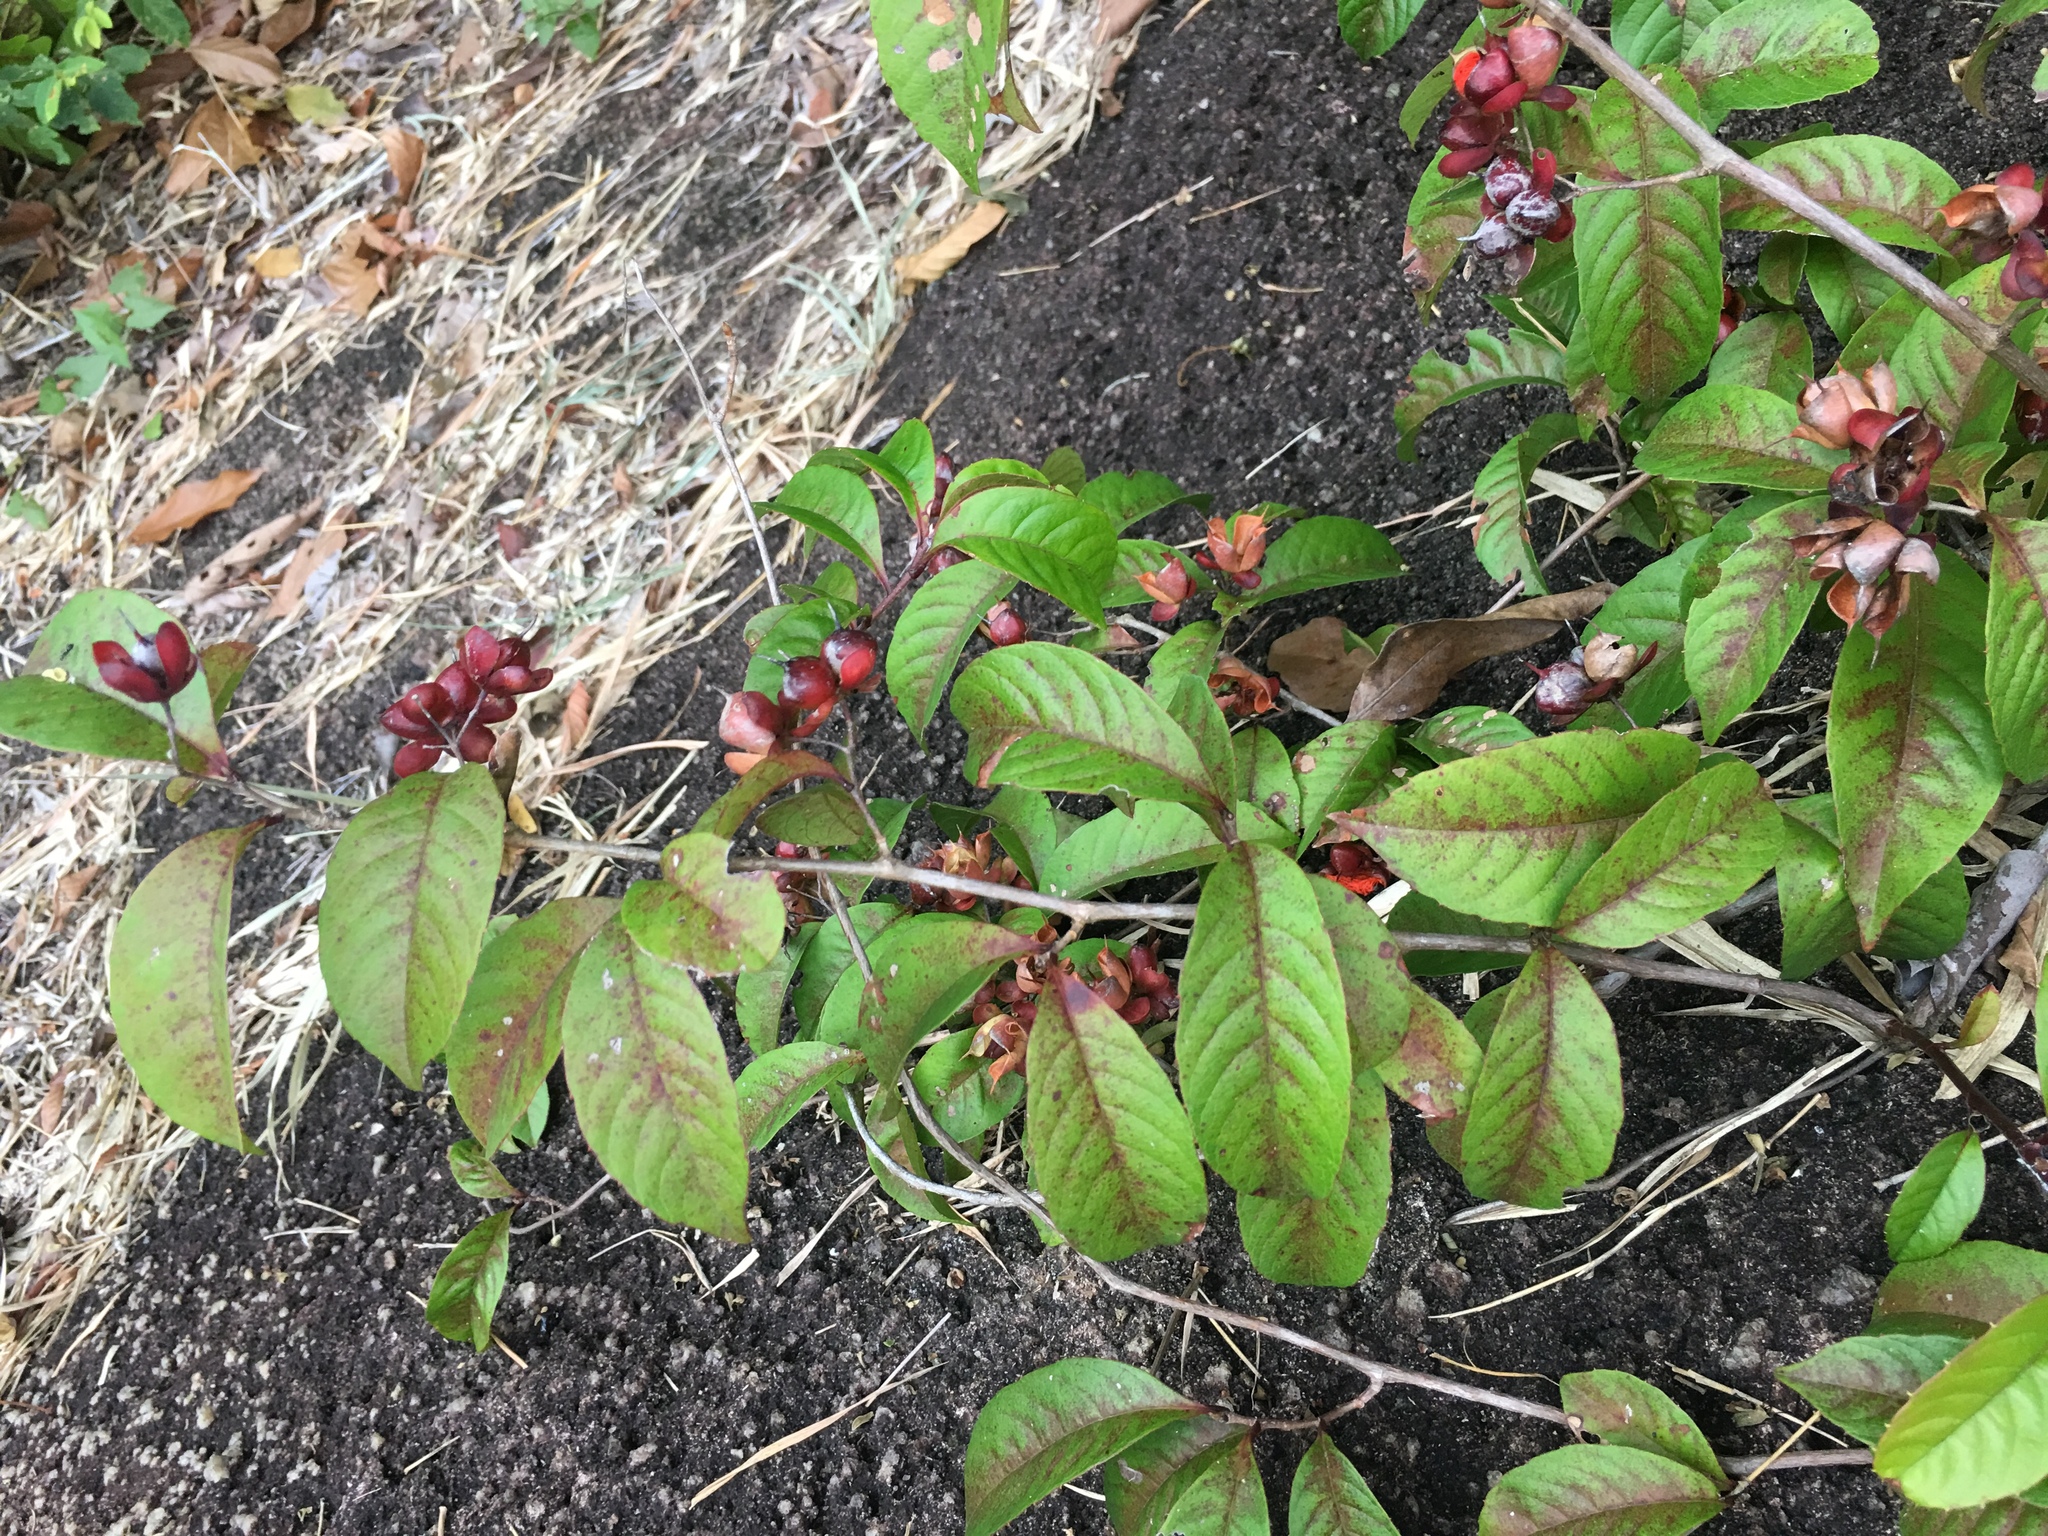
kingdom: Plantae
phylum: Tracheophyta
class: Magnoliopsida
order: Dilleniales
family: Dilleniaceae
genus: Tetracera
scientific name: Tetracera indica
